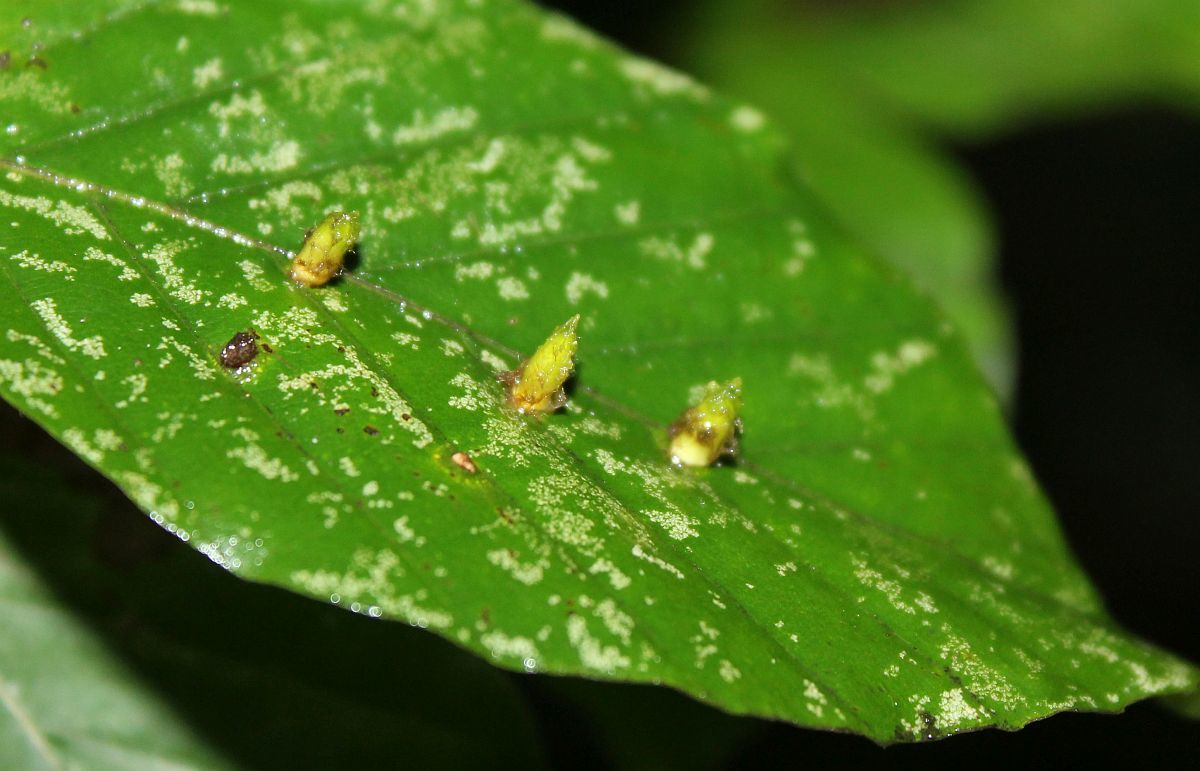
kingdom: Animalia
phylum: Arthropoda
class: Insecta
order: Diptera
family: Cecidomyiidae
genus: Hartigiola
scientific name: Hartigiola annulipes
